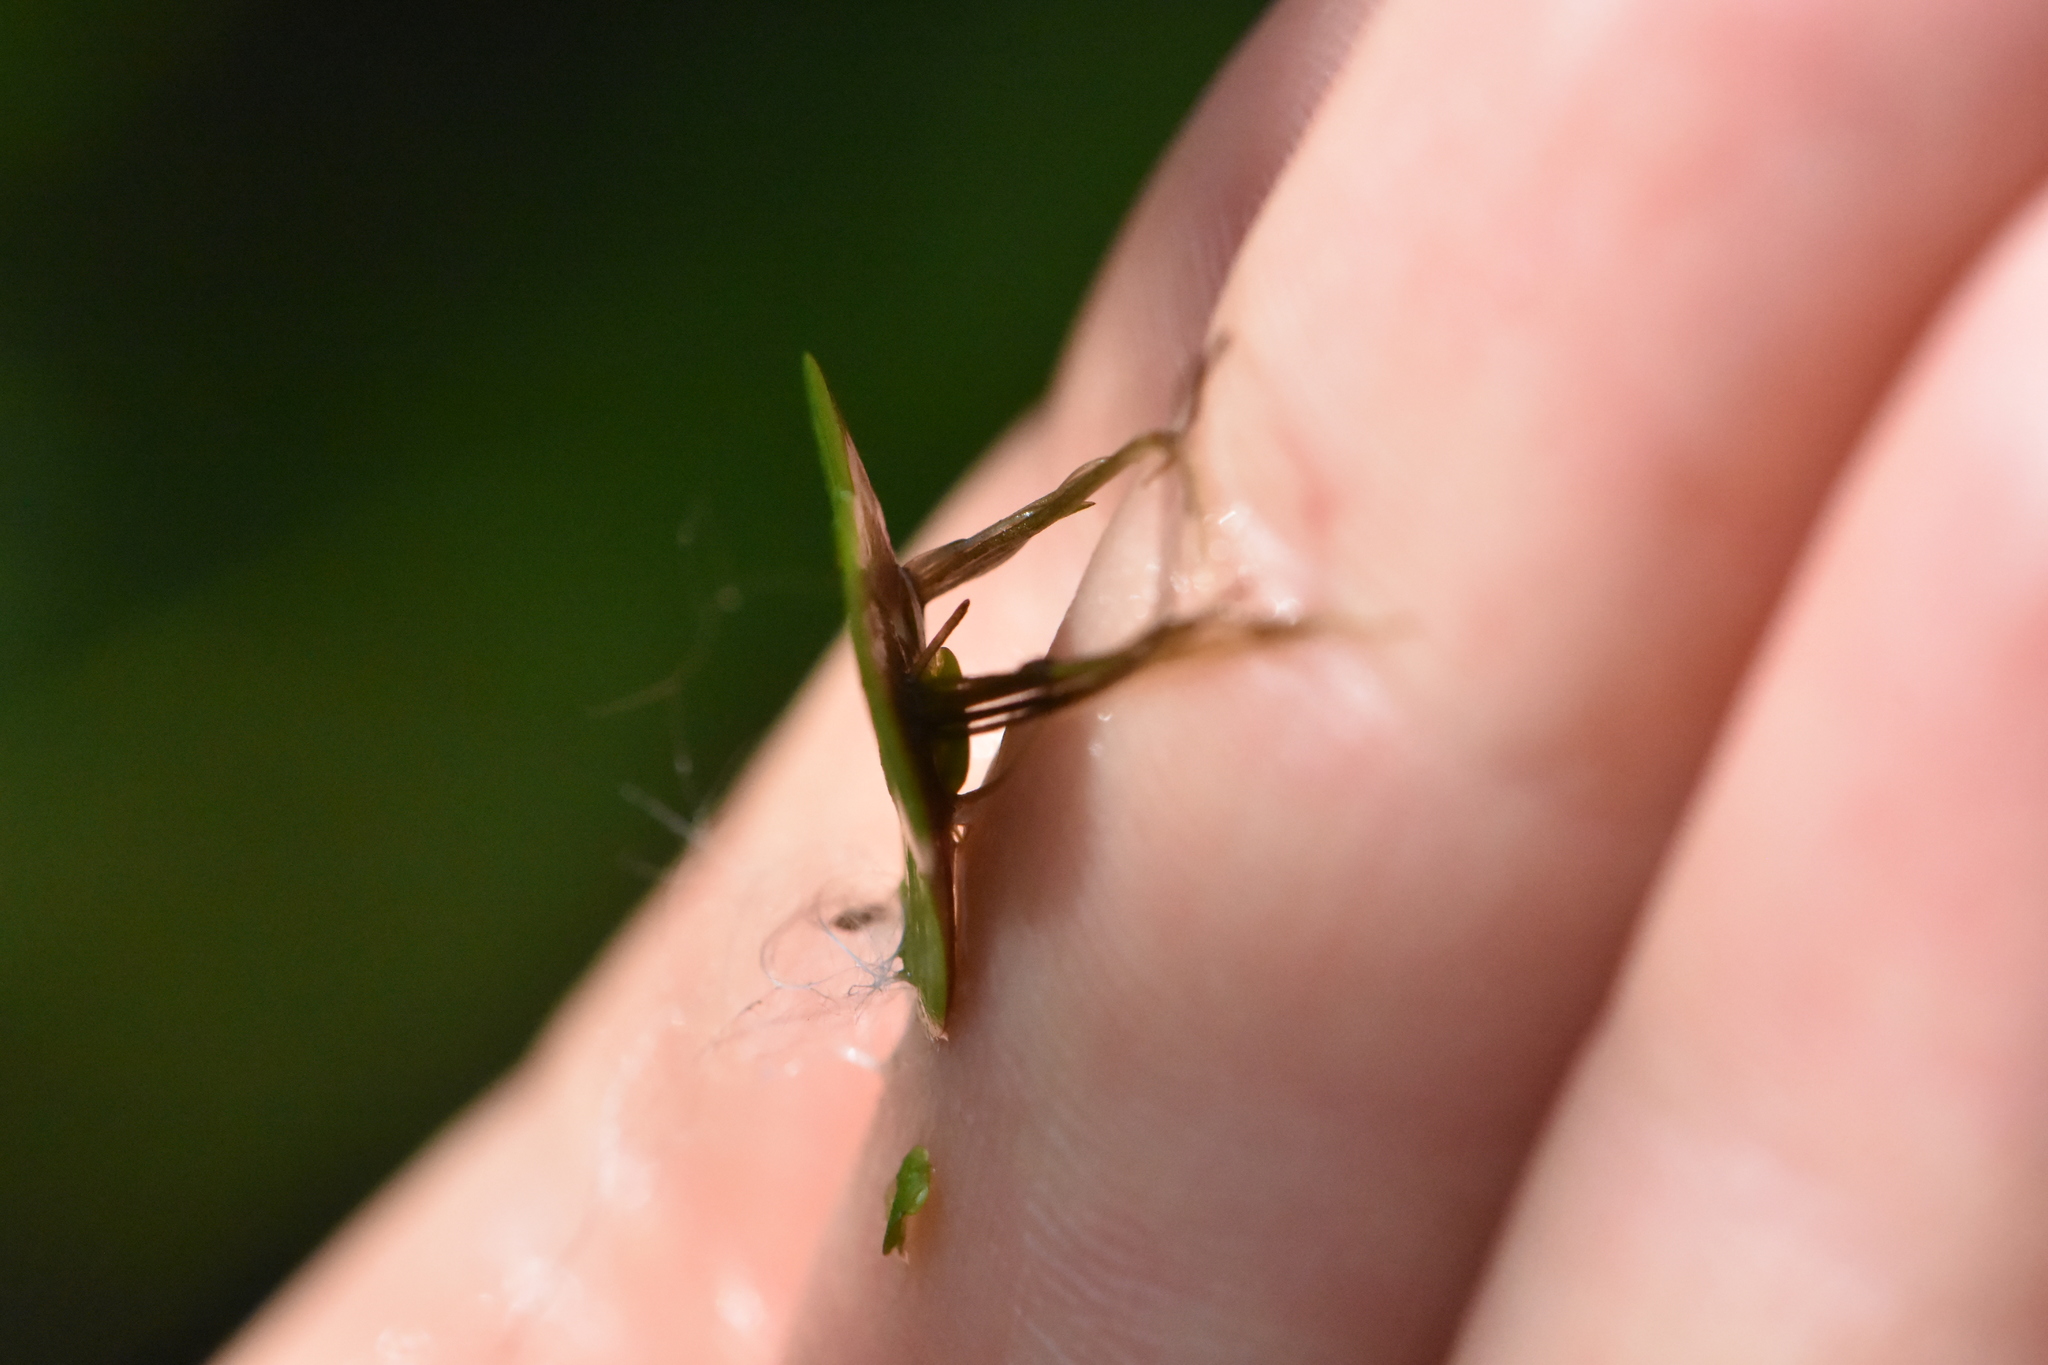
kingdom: Plantae
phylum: Tracheophyta
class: Liliopsida
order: Alismatales
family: Araceae
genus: Spirodela
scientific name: Spirodela polyrhiza
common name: Great duckweed
